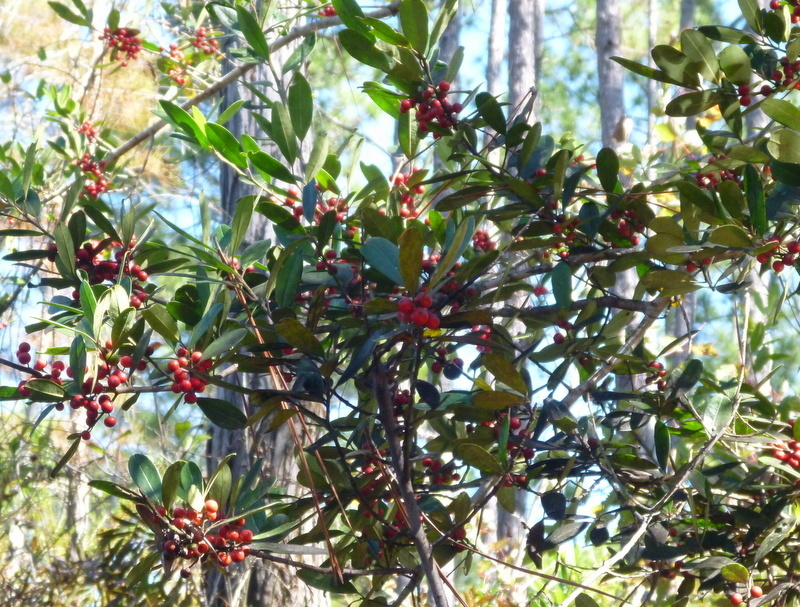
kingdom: Plantae
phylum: Tracheophyta
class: Magnoliopsida
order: Aquifoliales
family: Aquifoliaceae
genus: Ilex
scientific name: Ilex cassine
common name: Dahoon
